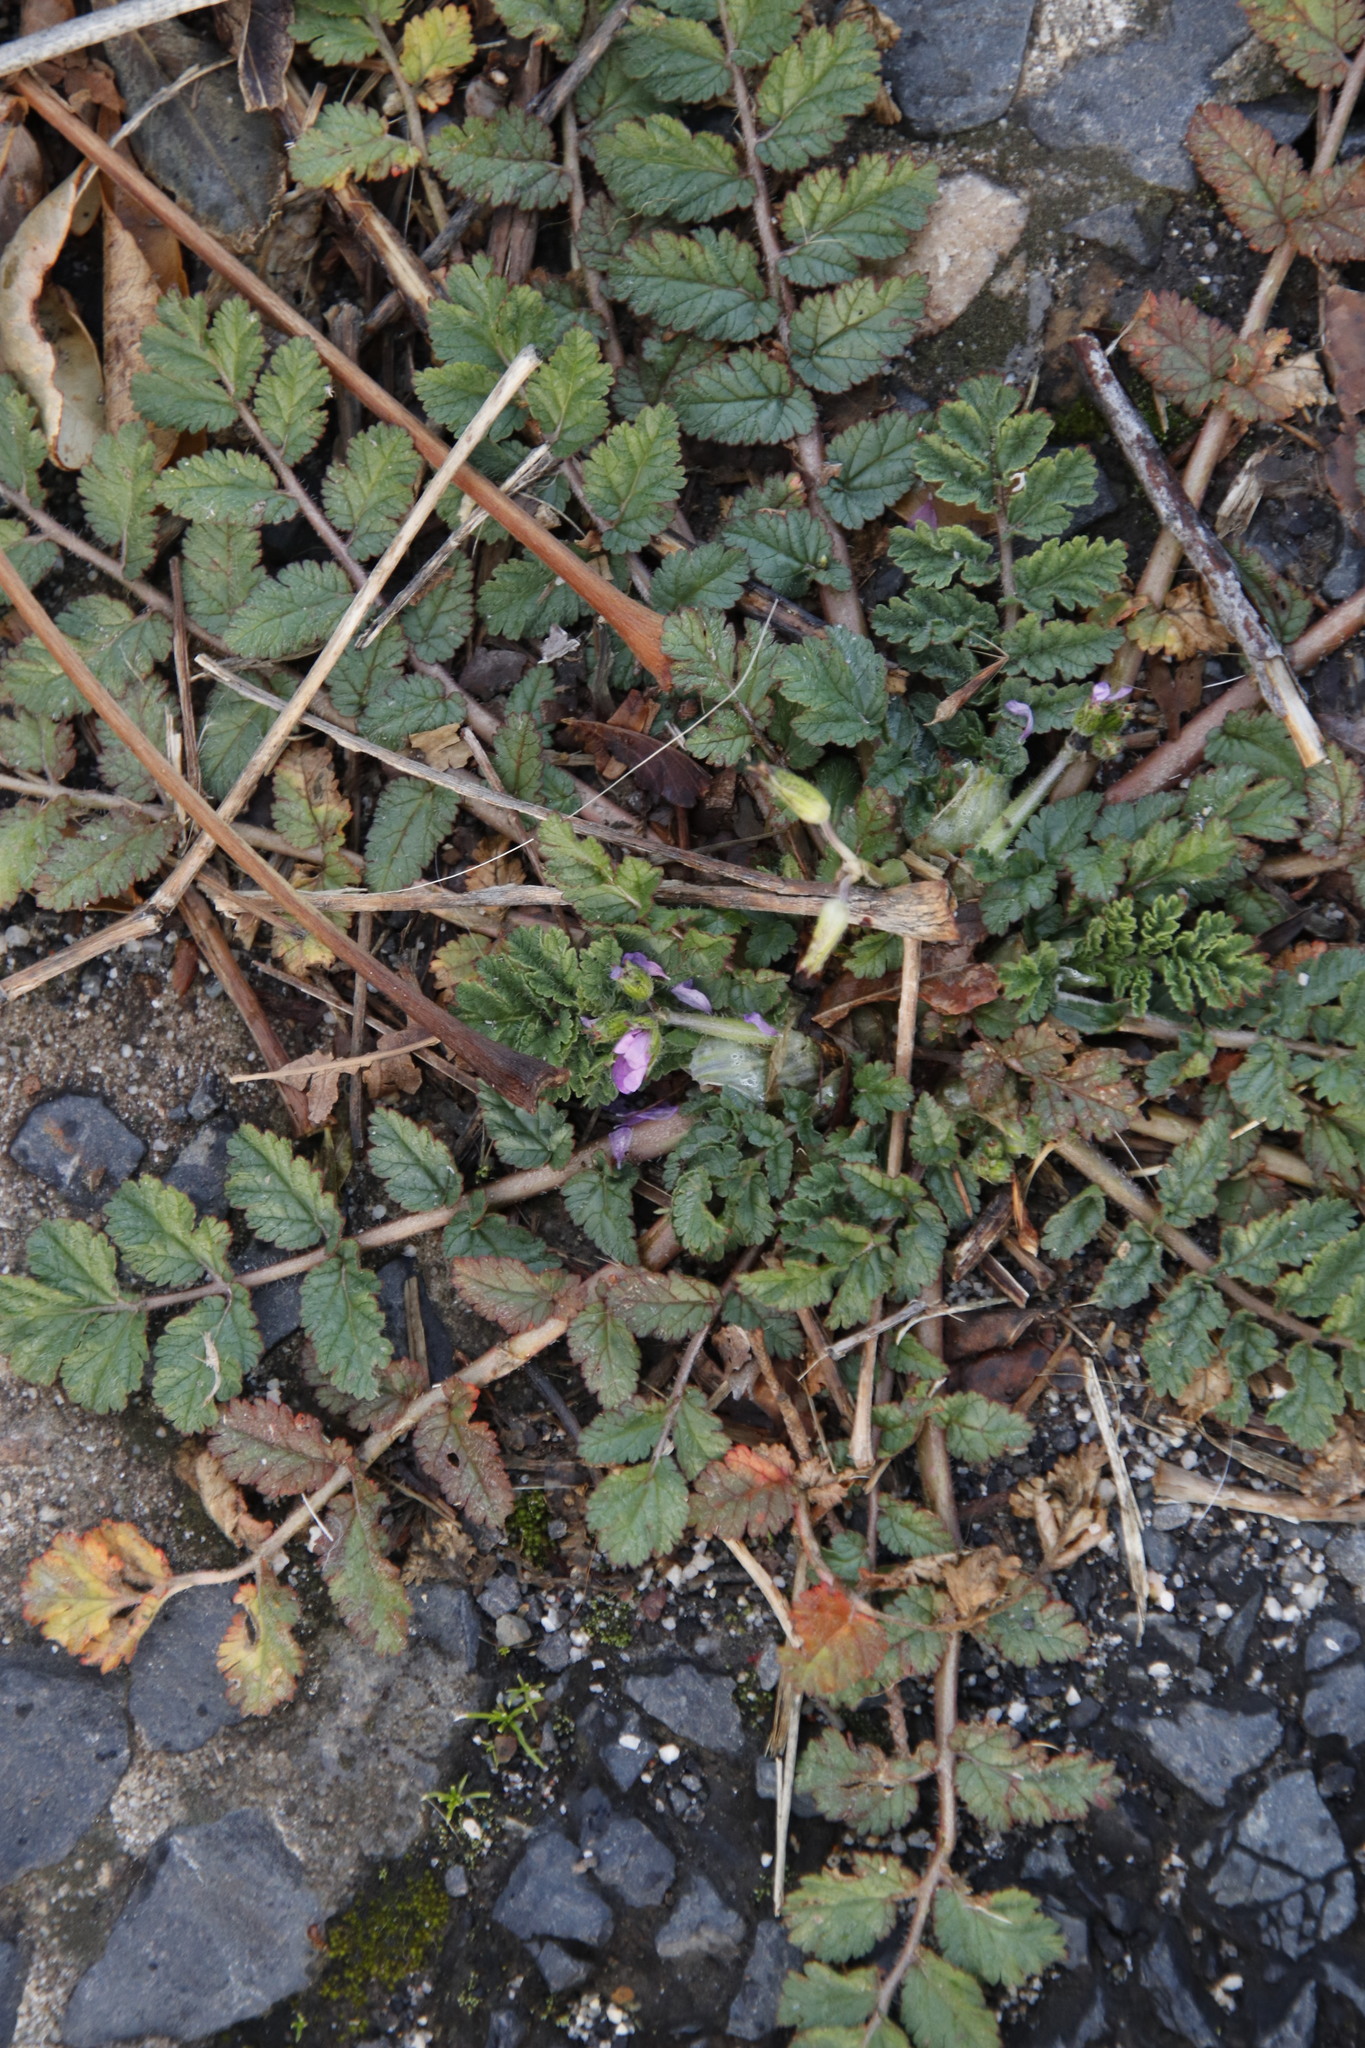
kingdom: Plantae
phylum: Tracheophyta
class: Magnoliopsida
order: Geraniales
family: Geraniaceae
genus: Erodium
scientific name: Erodium moschatum
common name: Musk stork's-bill
